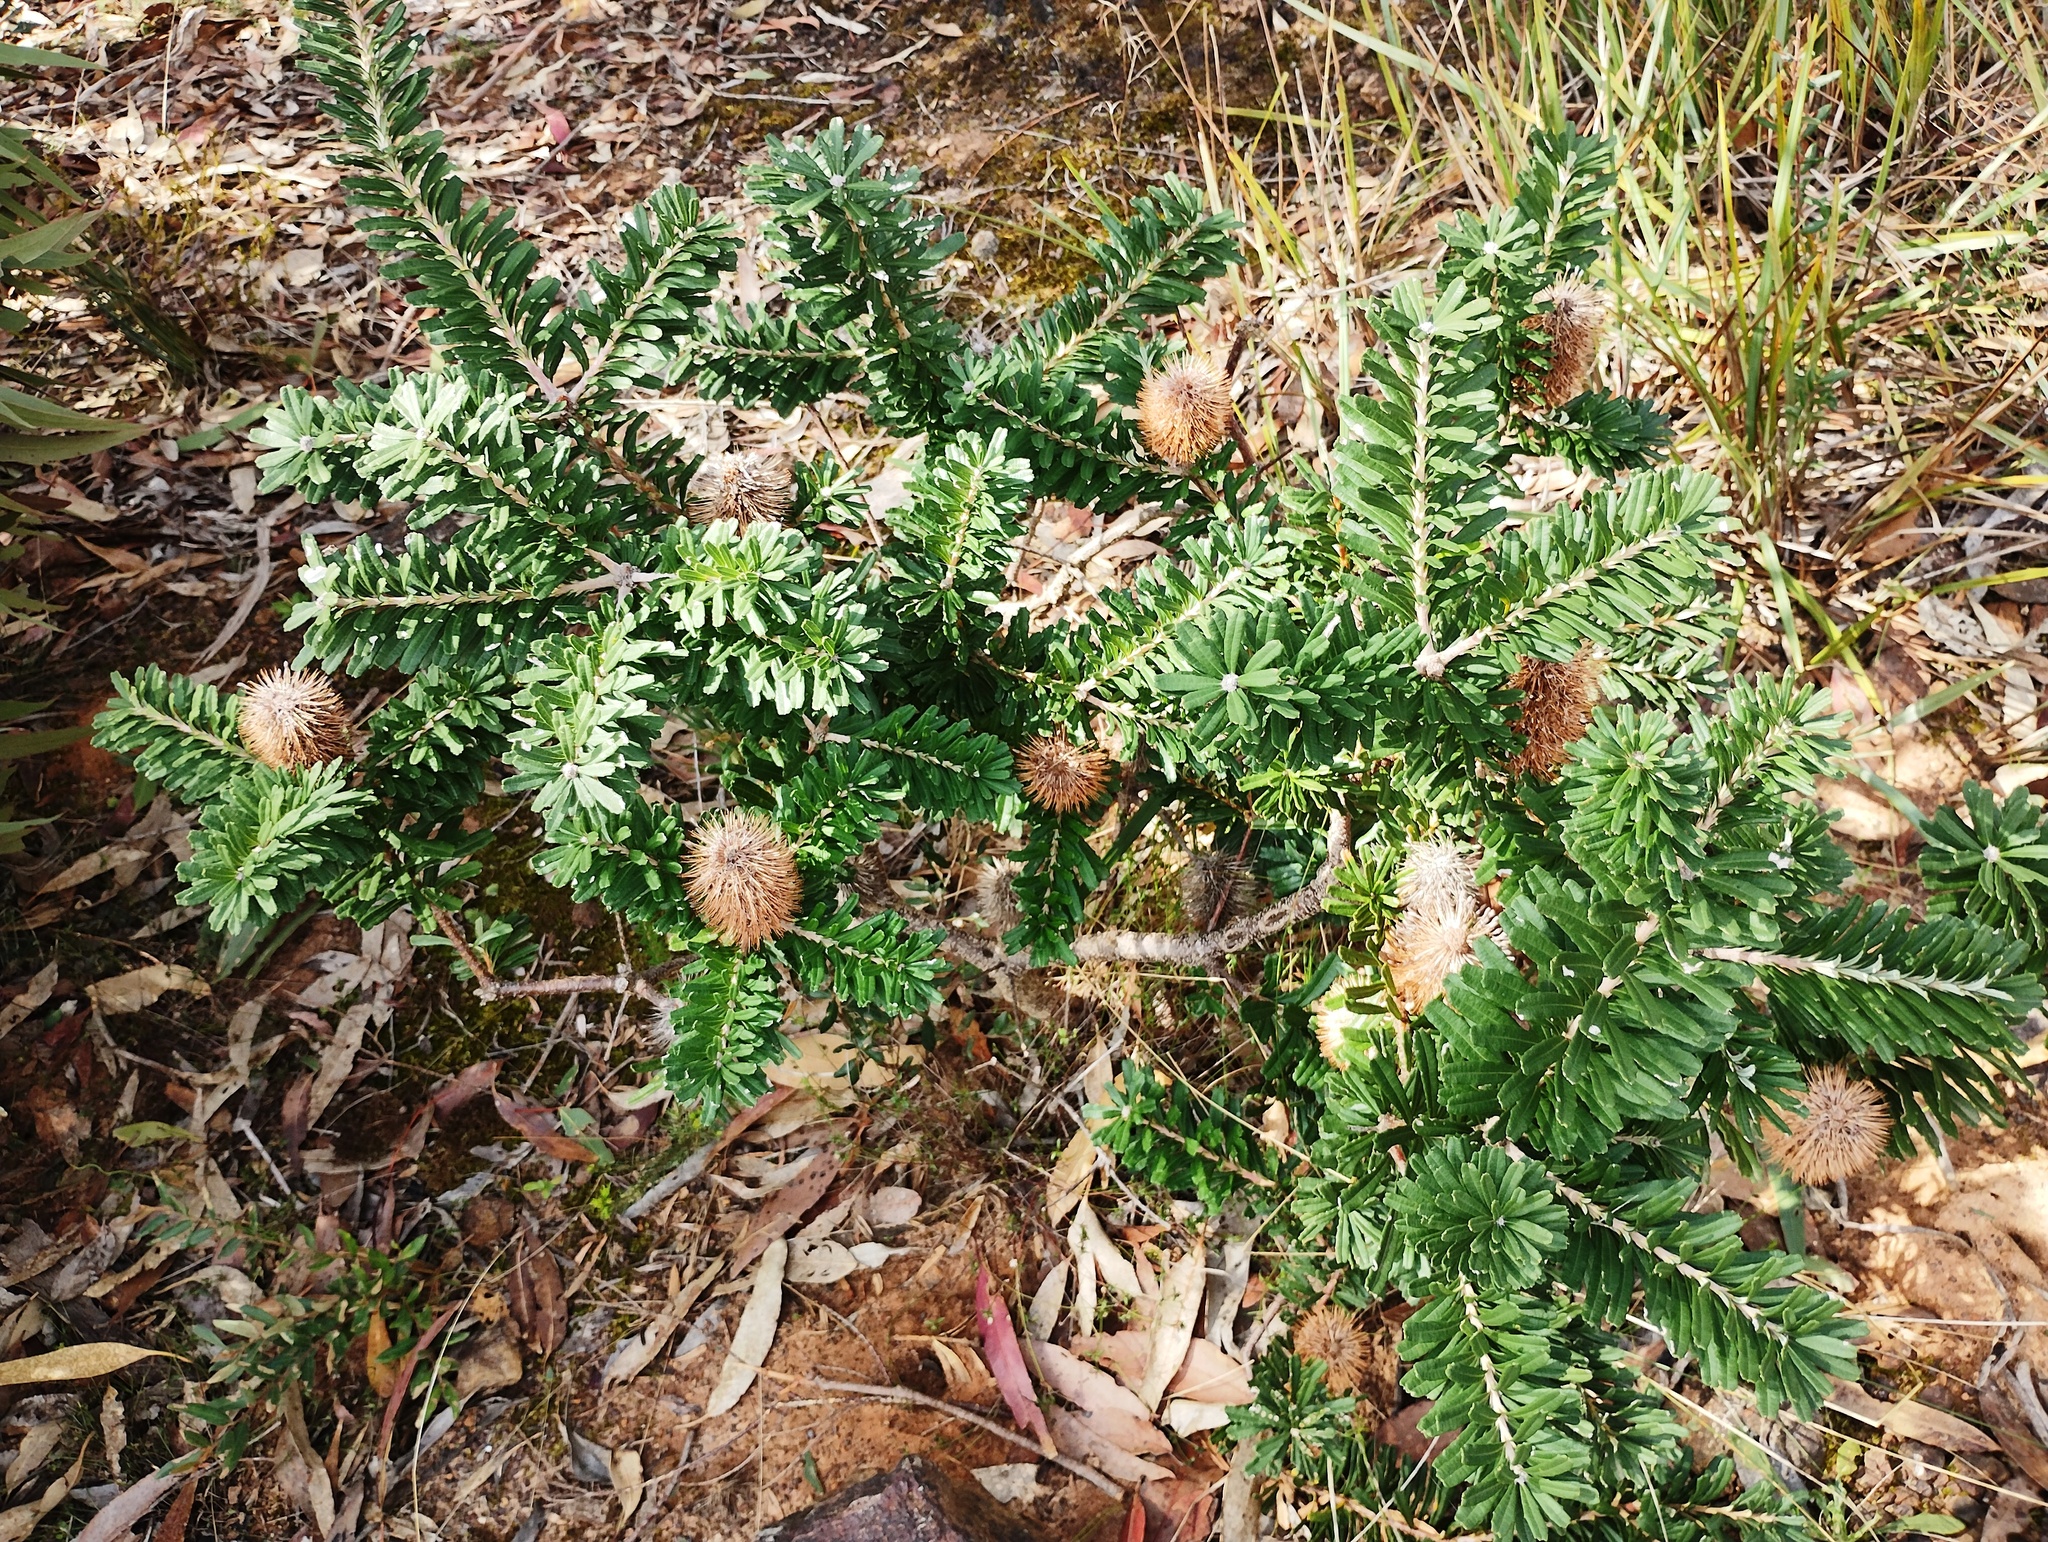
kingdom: Plantae
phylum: Tracheophyta
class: Magnoliopsida
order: Proteales
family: Proteaceae
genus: Banksia
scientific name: Banksia marginata
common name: Silver banksia
